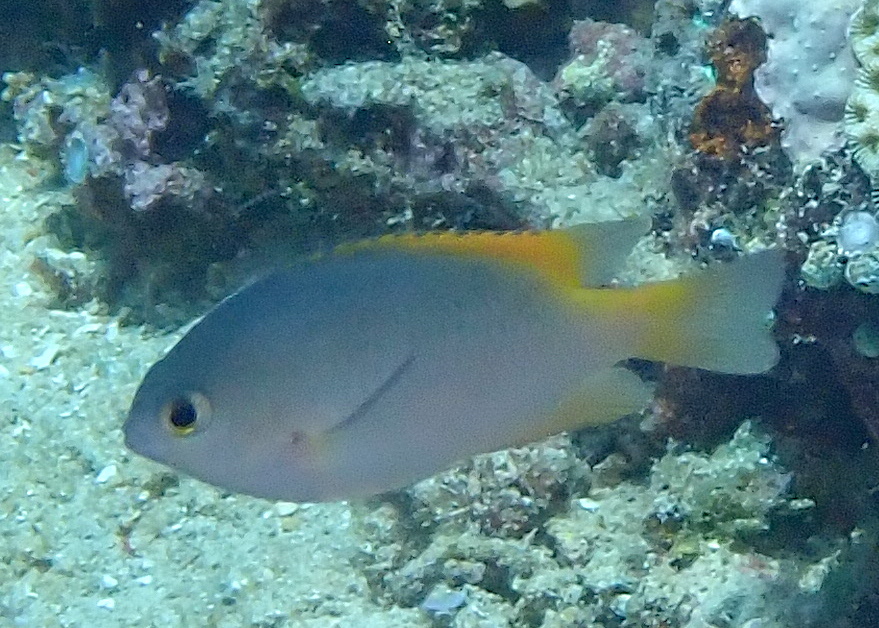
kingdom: Animalia
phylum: Chordata
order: Perciformes
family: Pomacentridae
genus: Pomacentrus
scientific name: Pomacentrus lepidogenys
